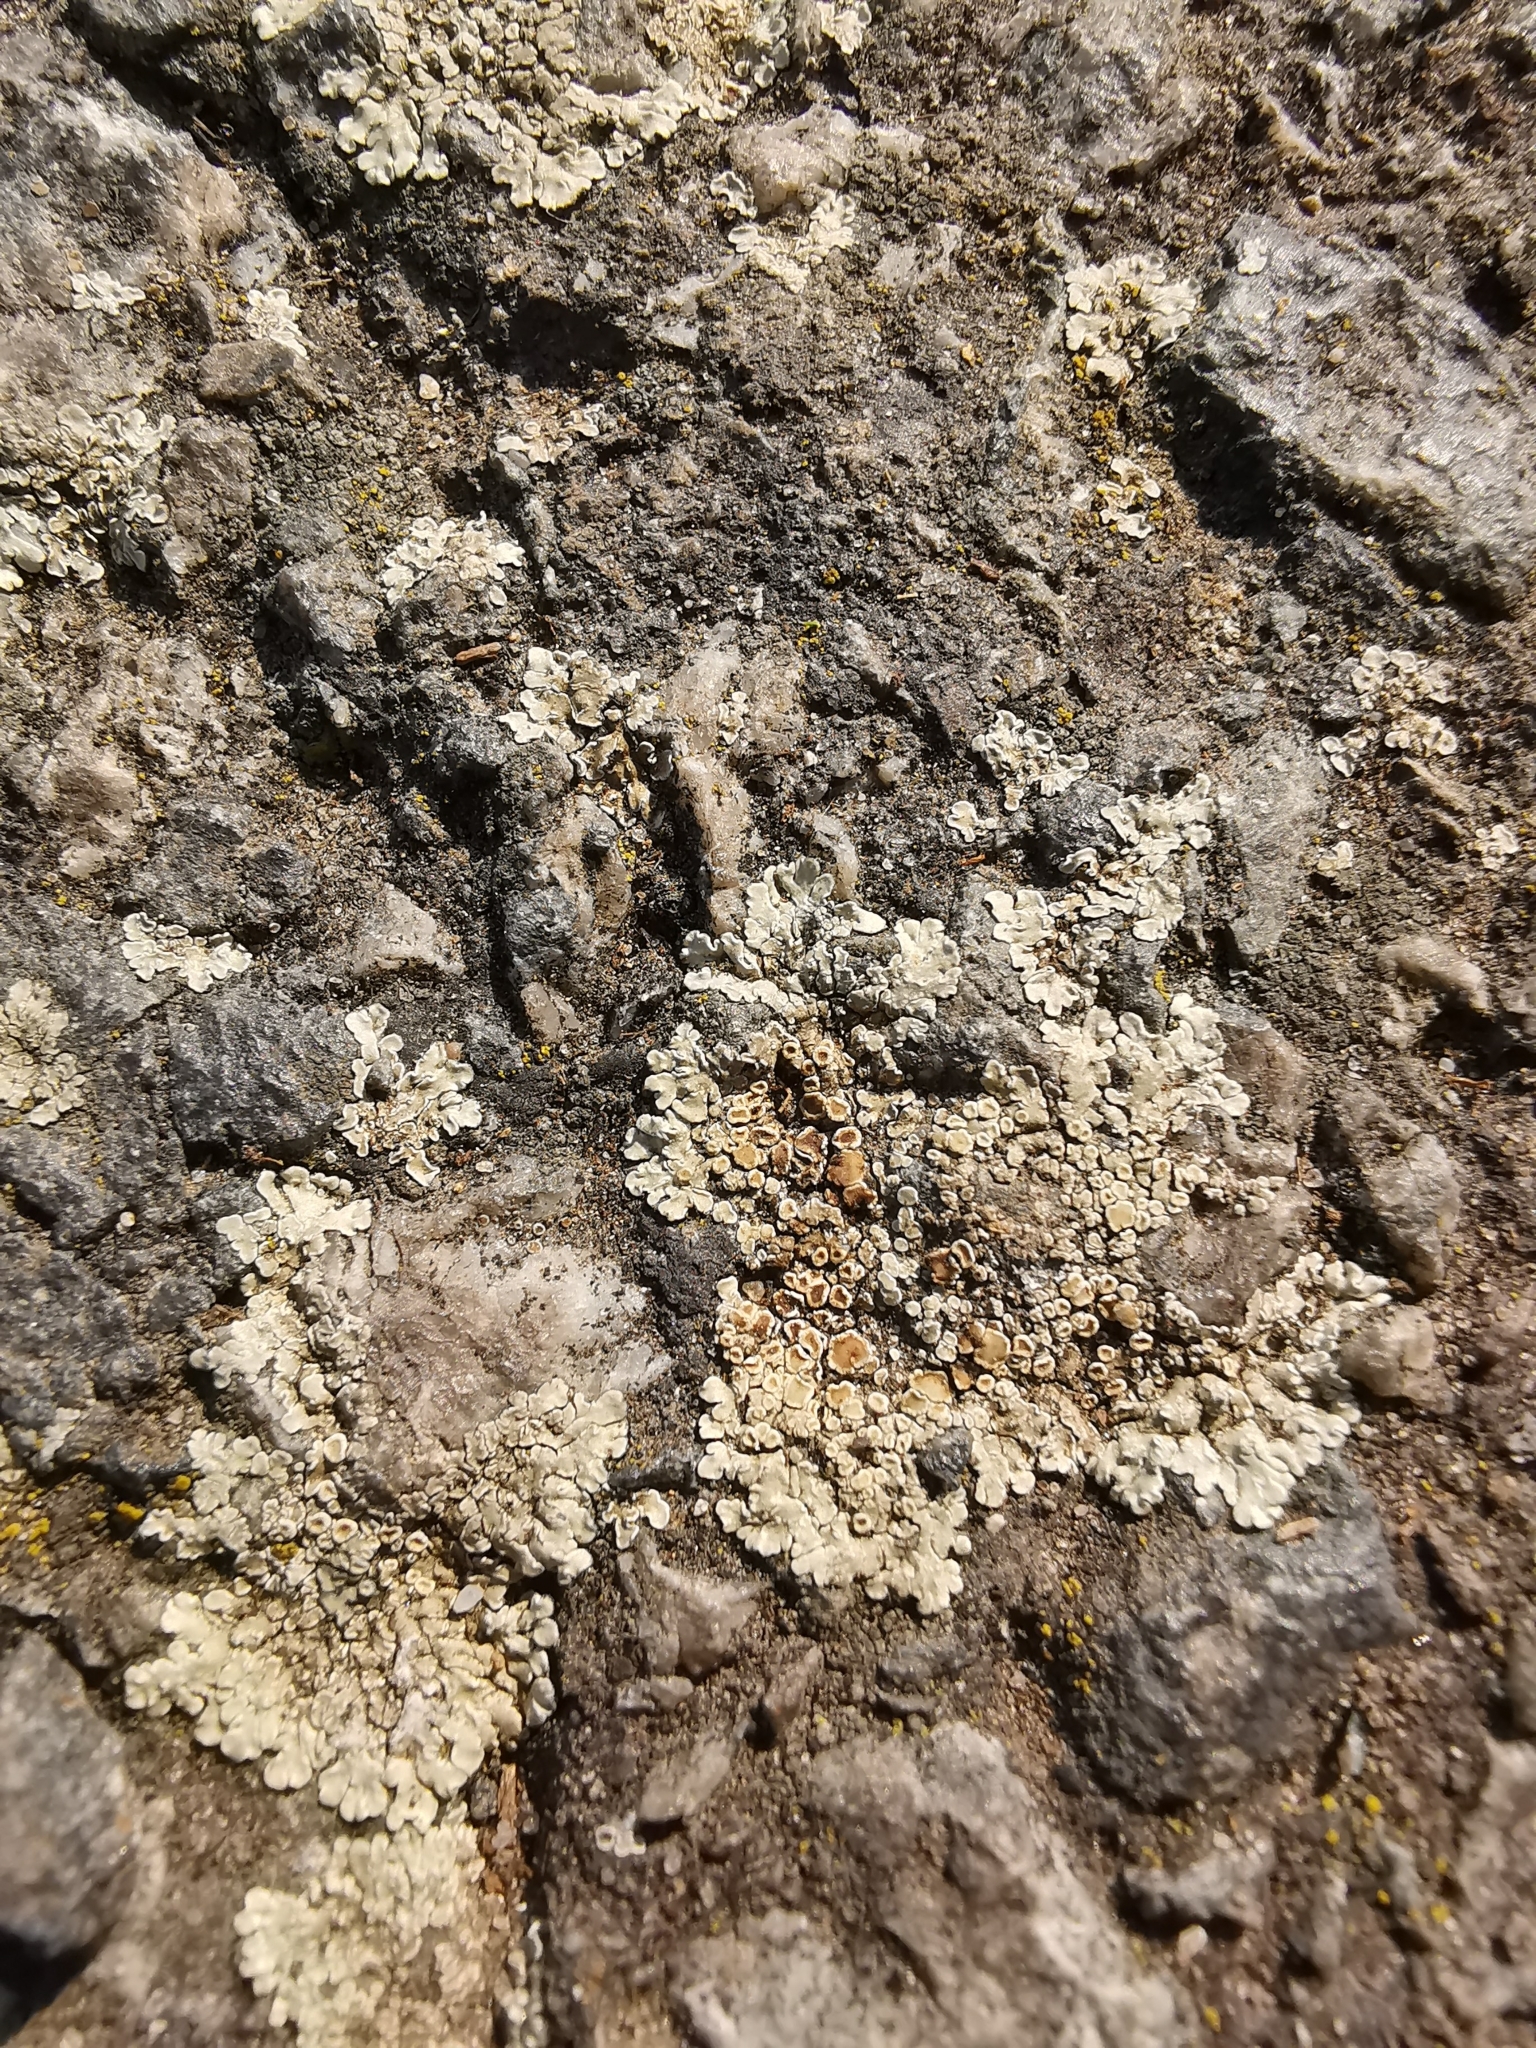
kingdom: Fungi
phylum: Ascomycota
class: Lecanoromycetes
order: Lecanorales
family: Lecanoraceae
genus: Protoparmeliopsis
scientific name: Protoparmeliopsis muralis
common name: Stonewall rim lichen
